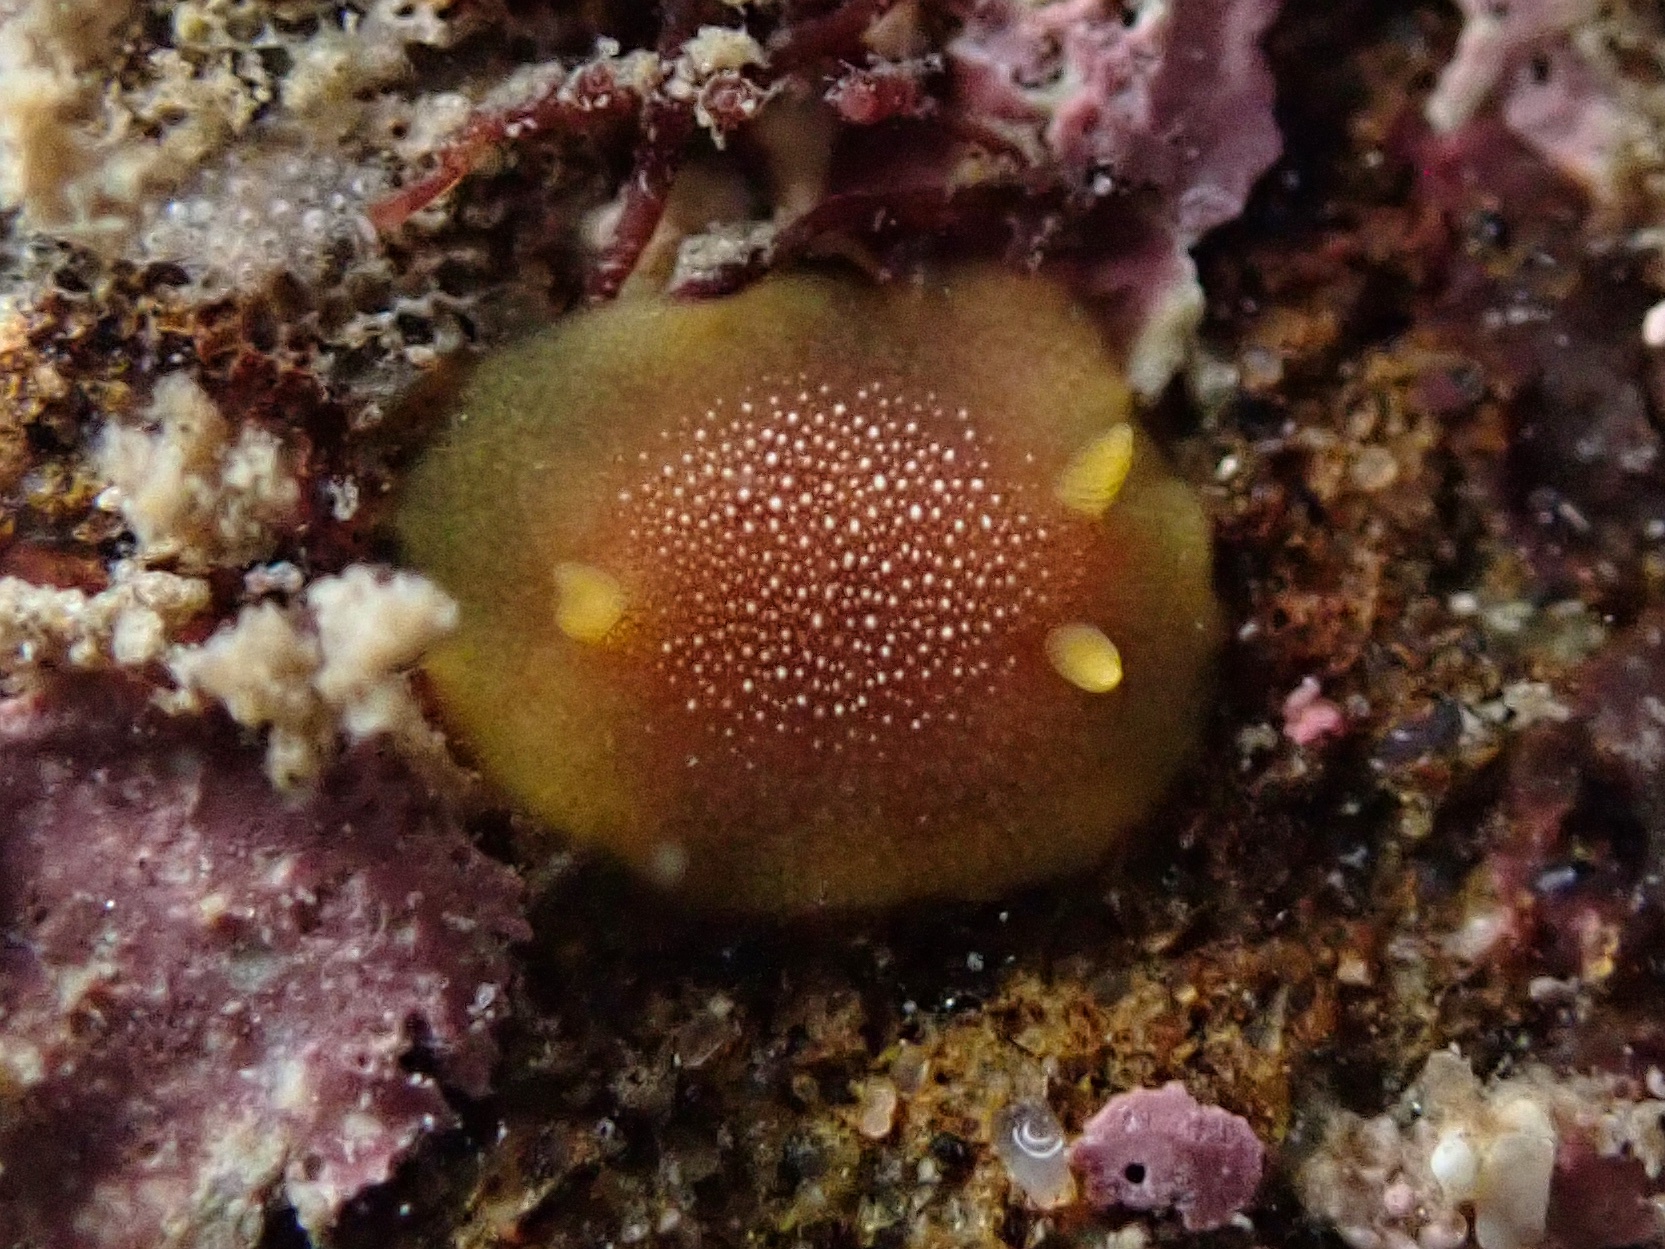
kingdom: Animalia
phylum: Mollusca
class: Gastropoda
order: Nudibranchia
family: Dendrodorididae
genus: Doriopsilla
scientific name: Doriopsilla gemela
